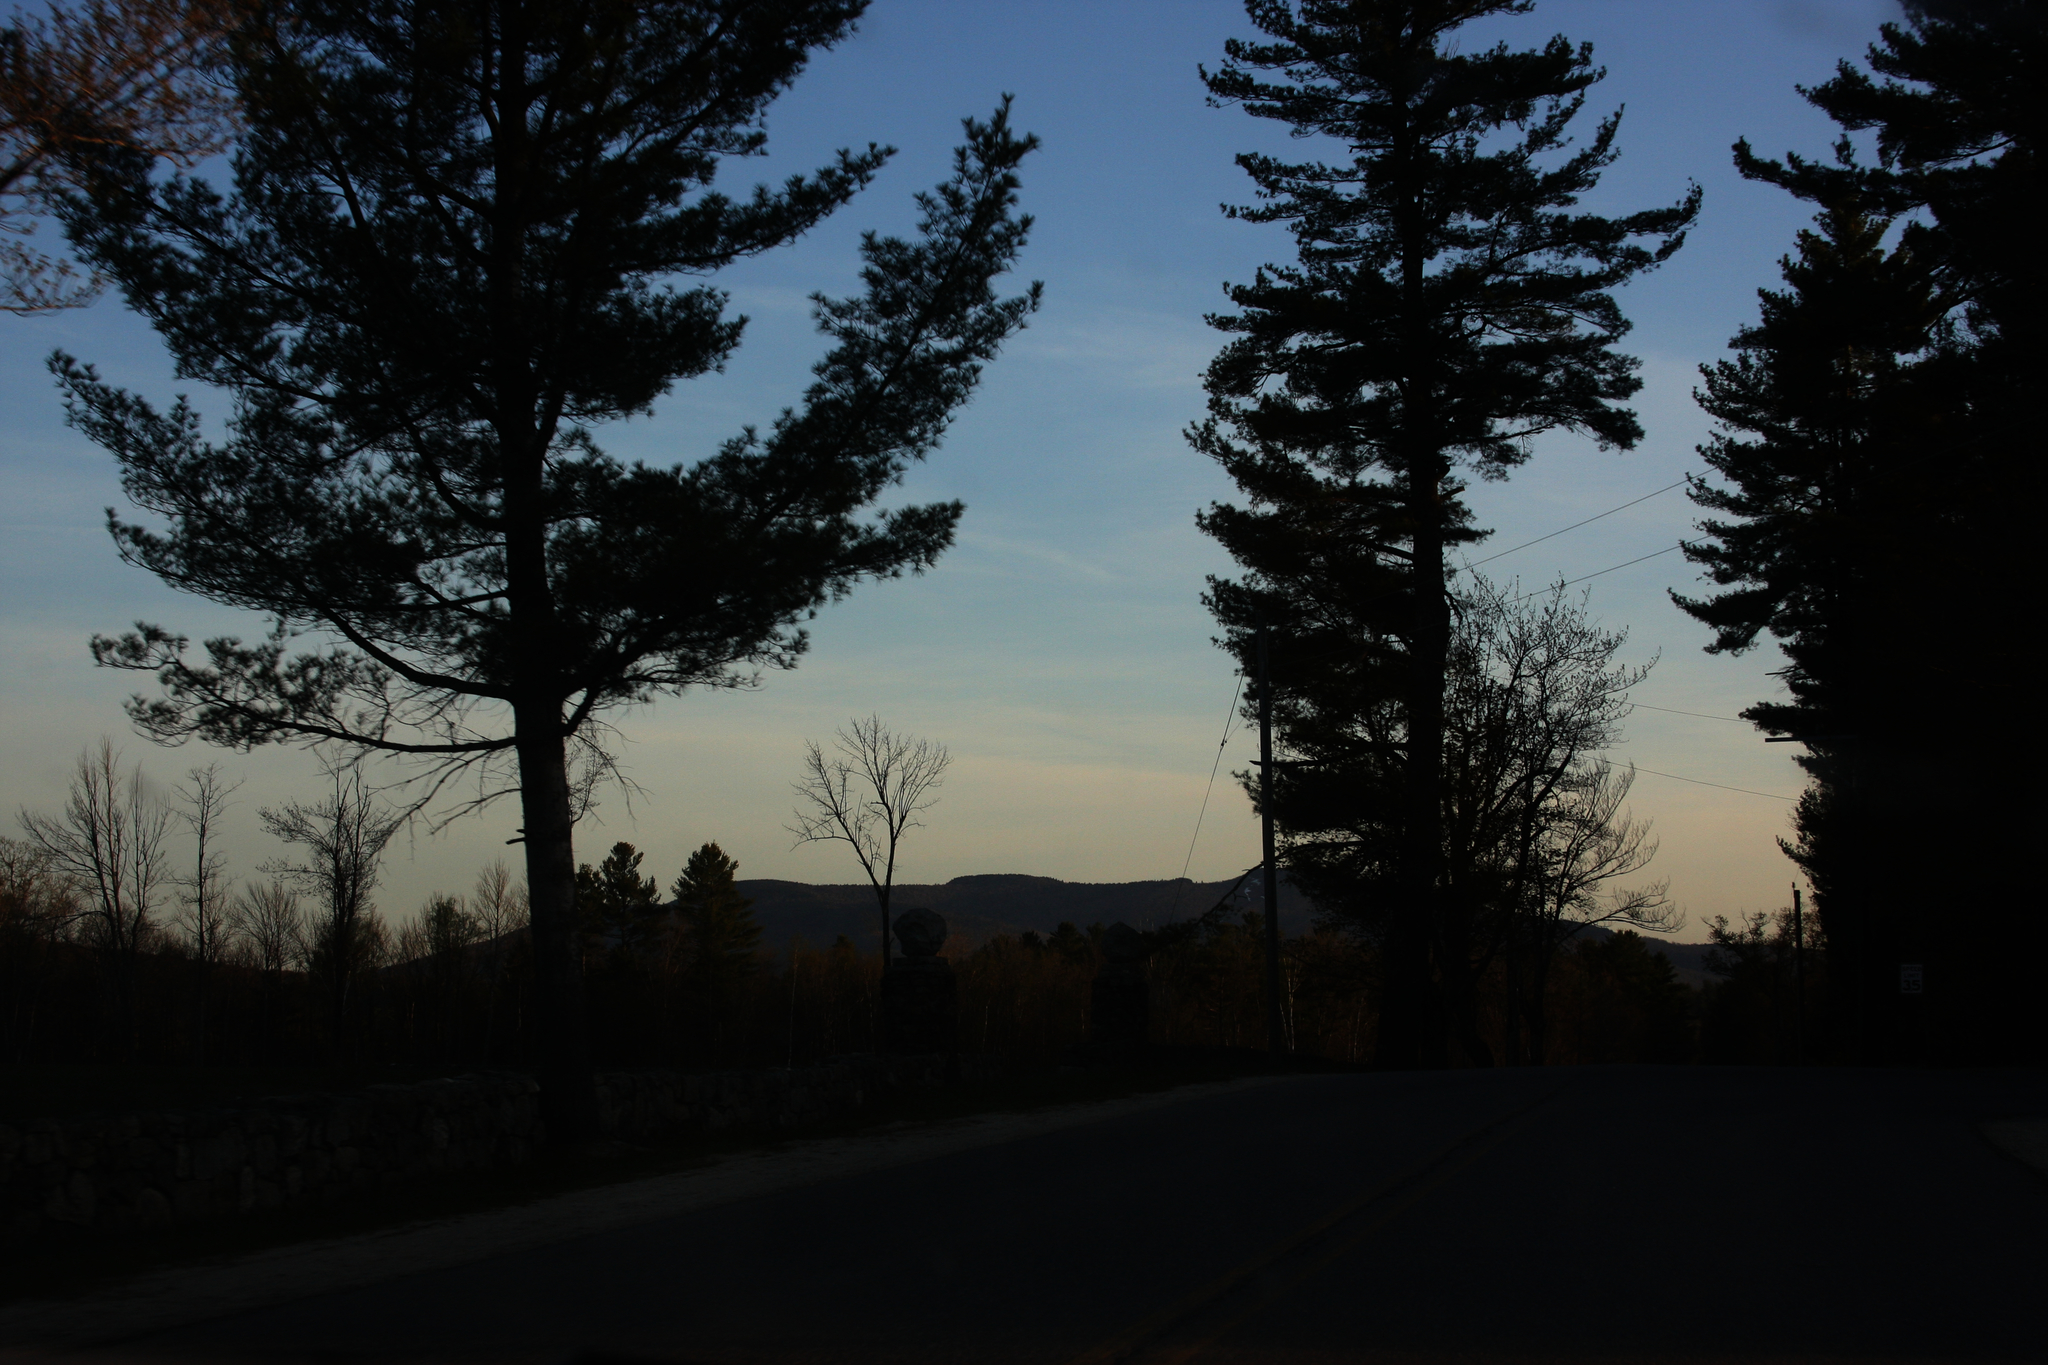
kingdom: Plantae
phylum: Tracheophyta
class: Pinopsida
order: Pinales
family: Pinaceae
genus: Pinus
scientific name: Pinus strobus
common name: Weymouth pine
